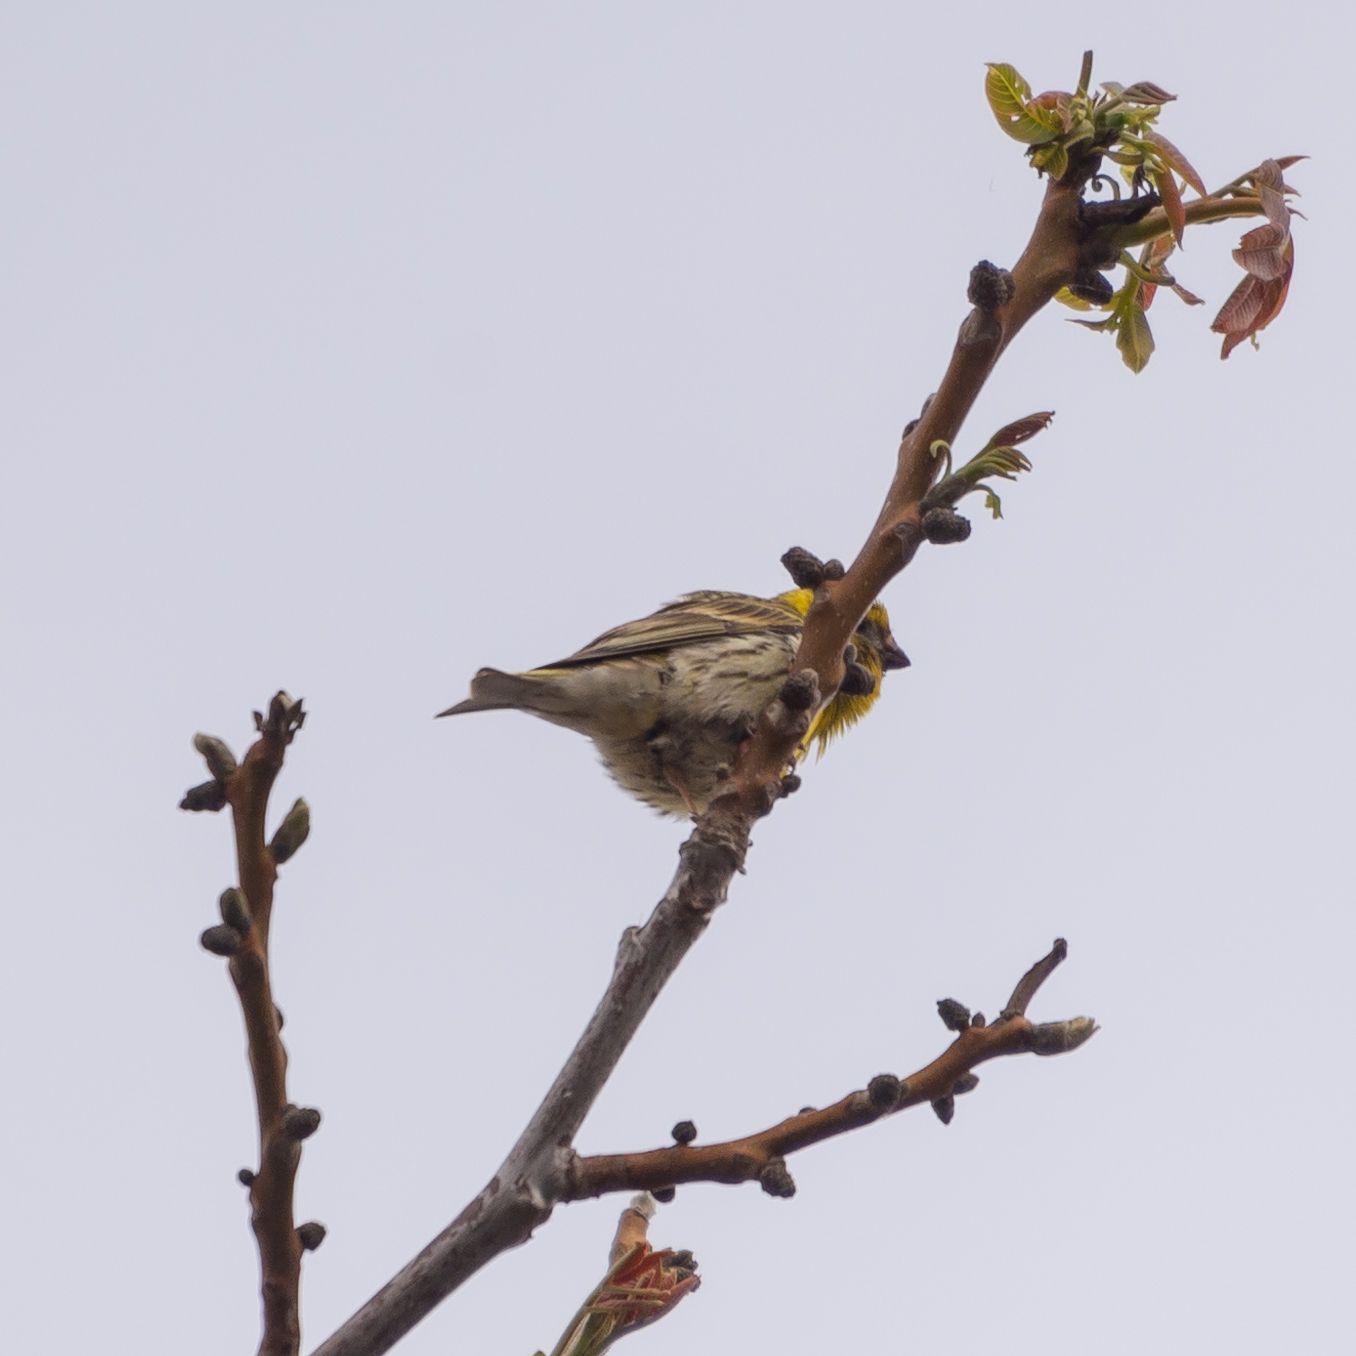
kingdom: Animalia
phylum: Chordata
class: Aves
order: Passeriformes
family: Fringillidae
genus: Serinus
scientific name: Serinus serinus
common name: European serin
